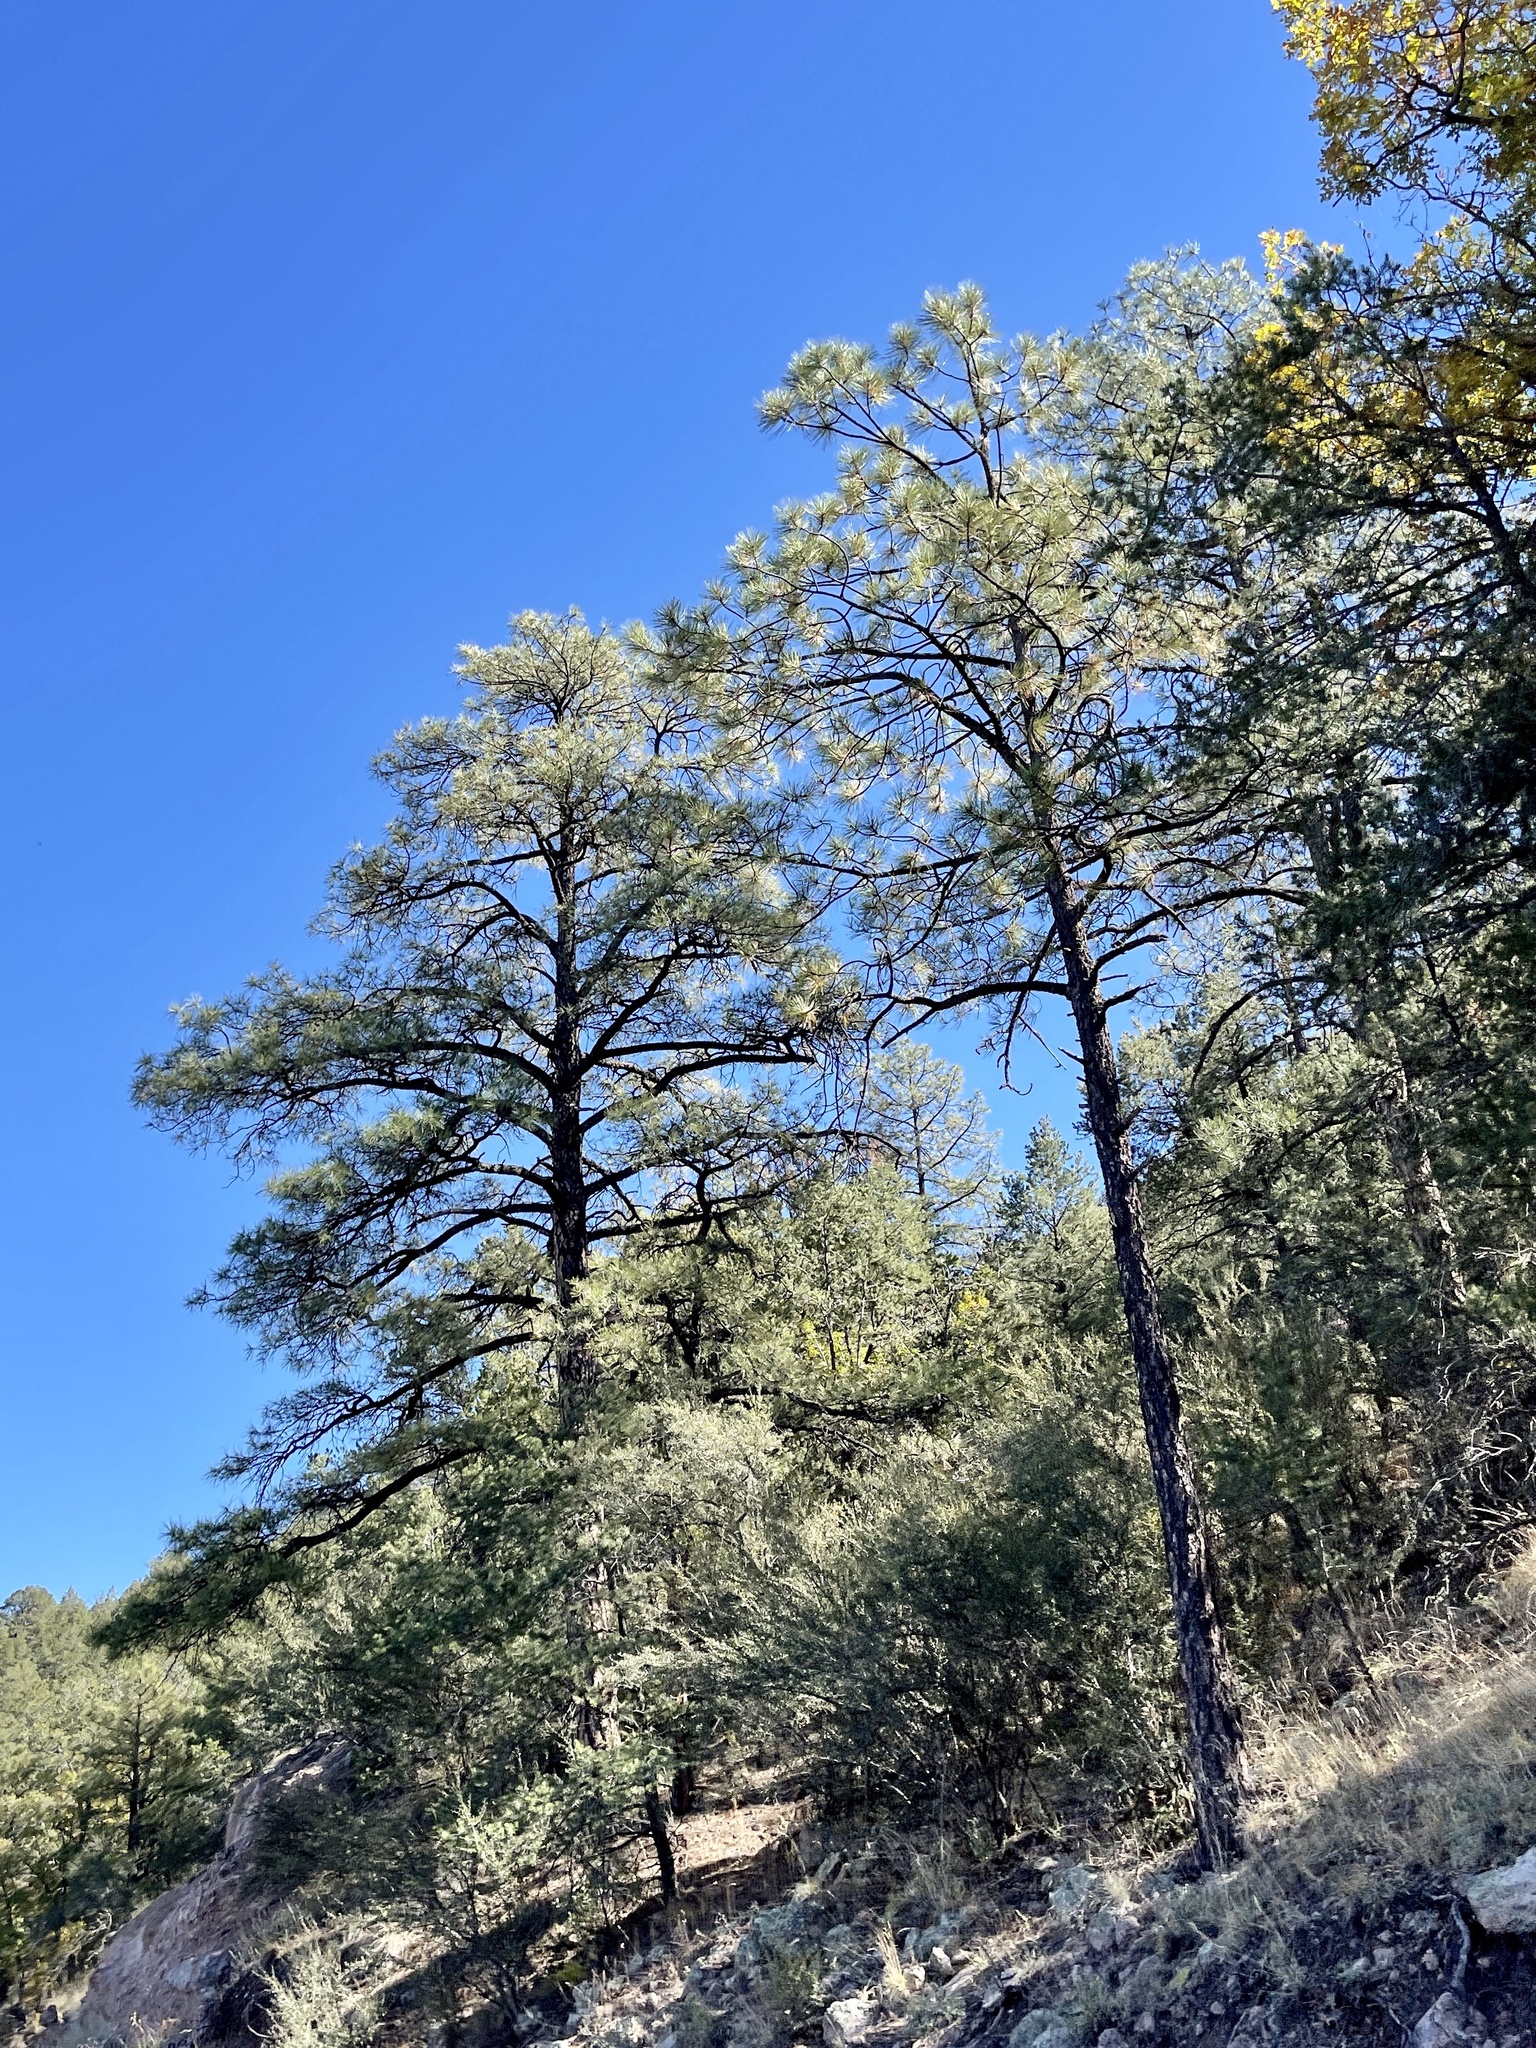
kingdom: Plantae
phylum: Tracheophyta
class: Pinopsida
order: Pinales
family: Pinaceae
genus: Pinus
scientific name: Pinus ponderosa
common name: Western yellow-pine
